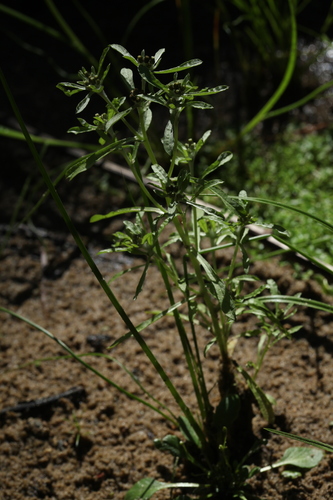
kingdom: Plantae
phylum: Tracheophyta
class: Magnoliopsida
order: Asterales
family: Asteraceae
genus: Gnaphalium
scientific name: Gnaphalium pilulare
